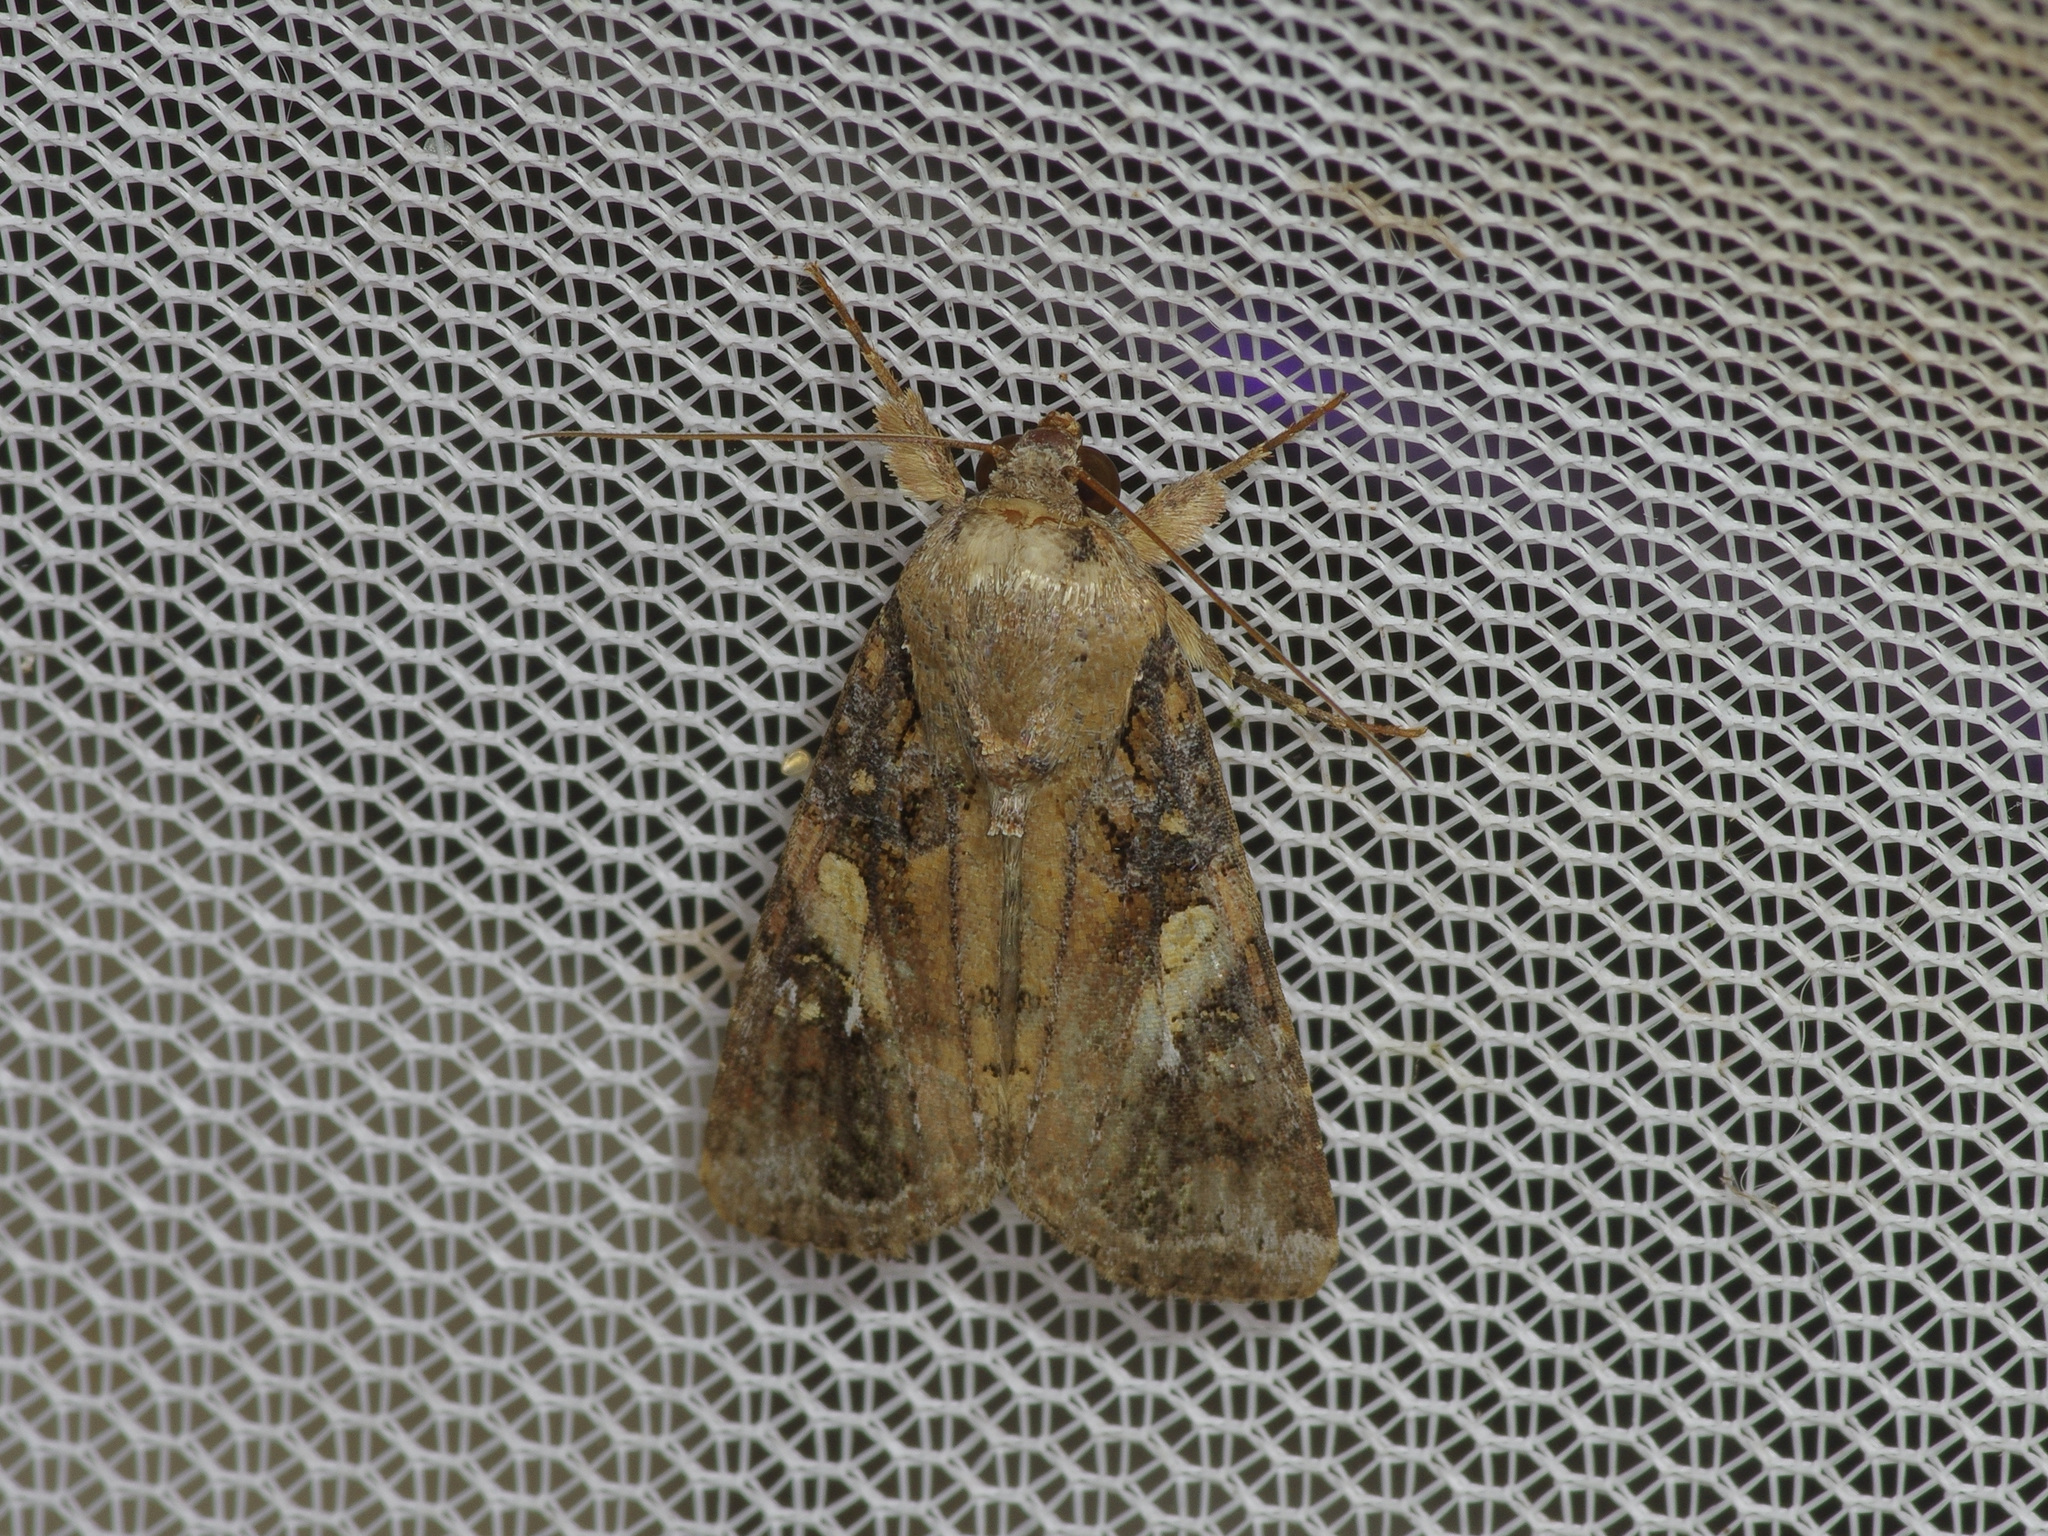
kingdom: Animalia
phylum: Arthropoda
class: Insecta
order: Lepidoptera
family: Noctuidae
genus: Spodoptera
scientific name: Spodoptera frugiperda
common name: Fall armyworm
